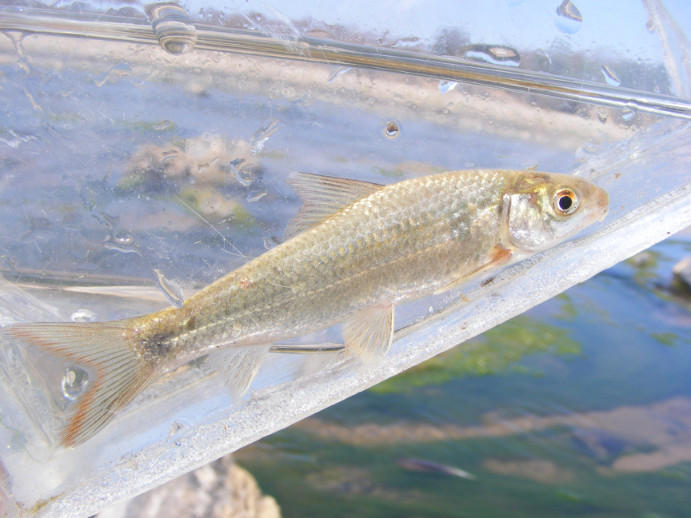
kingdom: Animalia
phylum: Chordata
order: Cypriniformes
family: Cyprinidae
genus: Labeo
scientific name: Labeo ruddi
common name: Silver labeo
